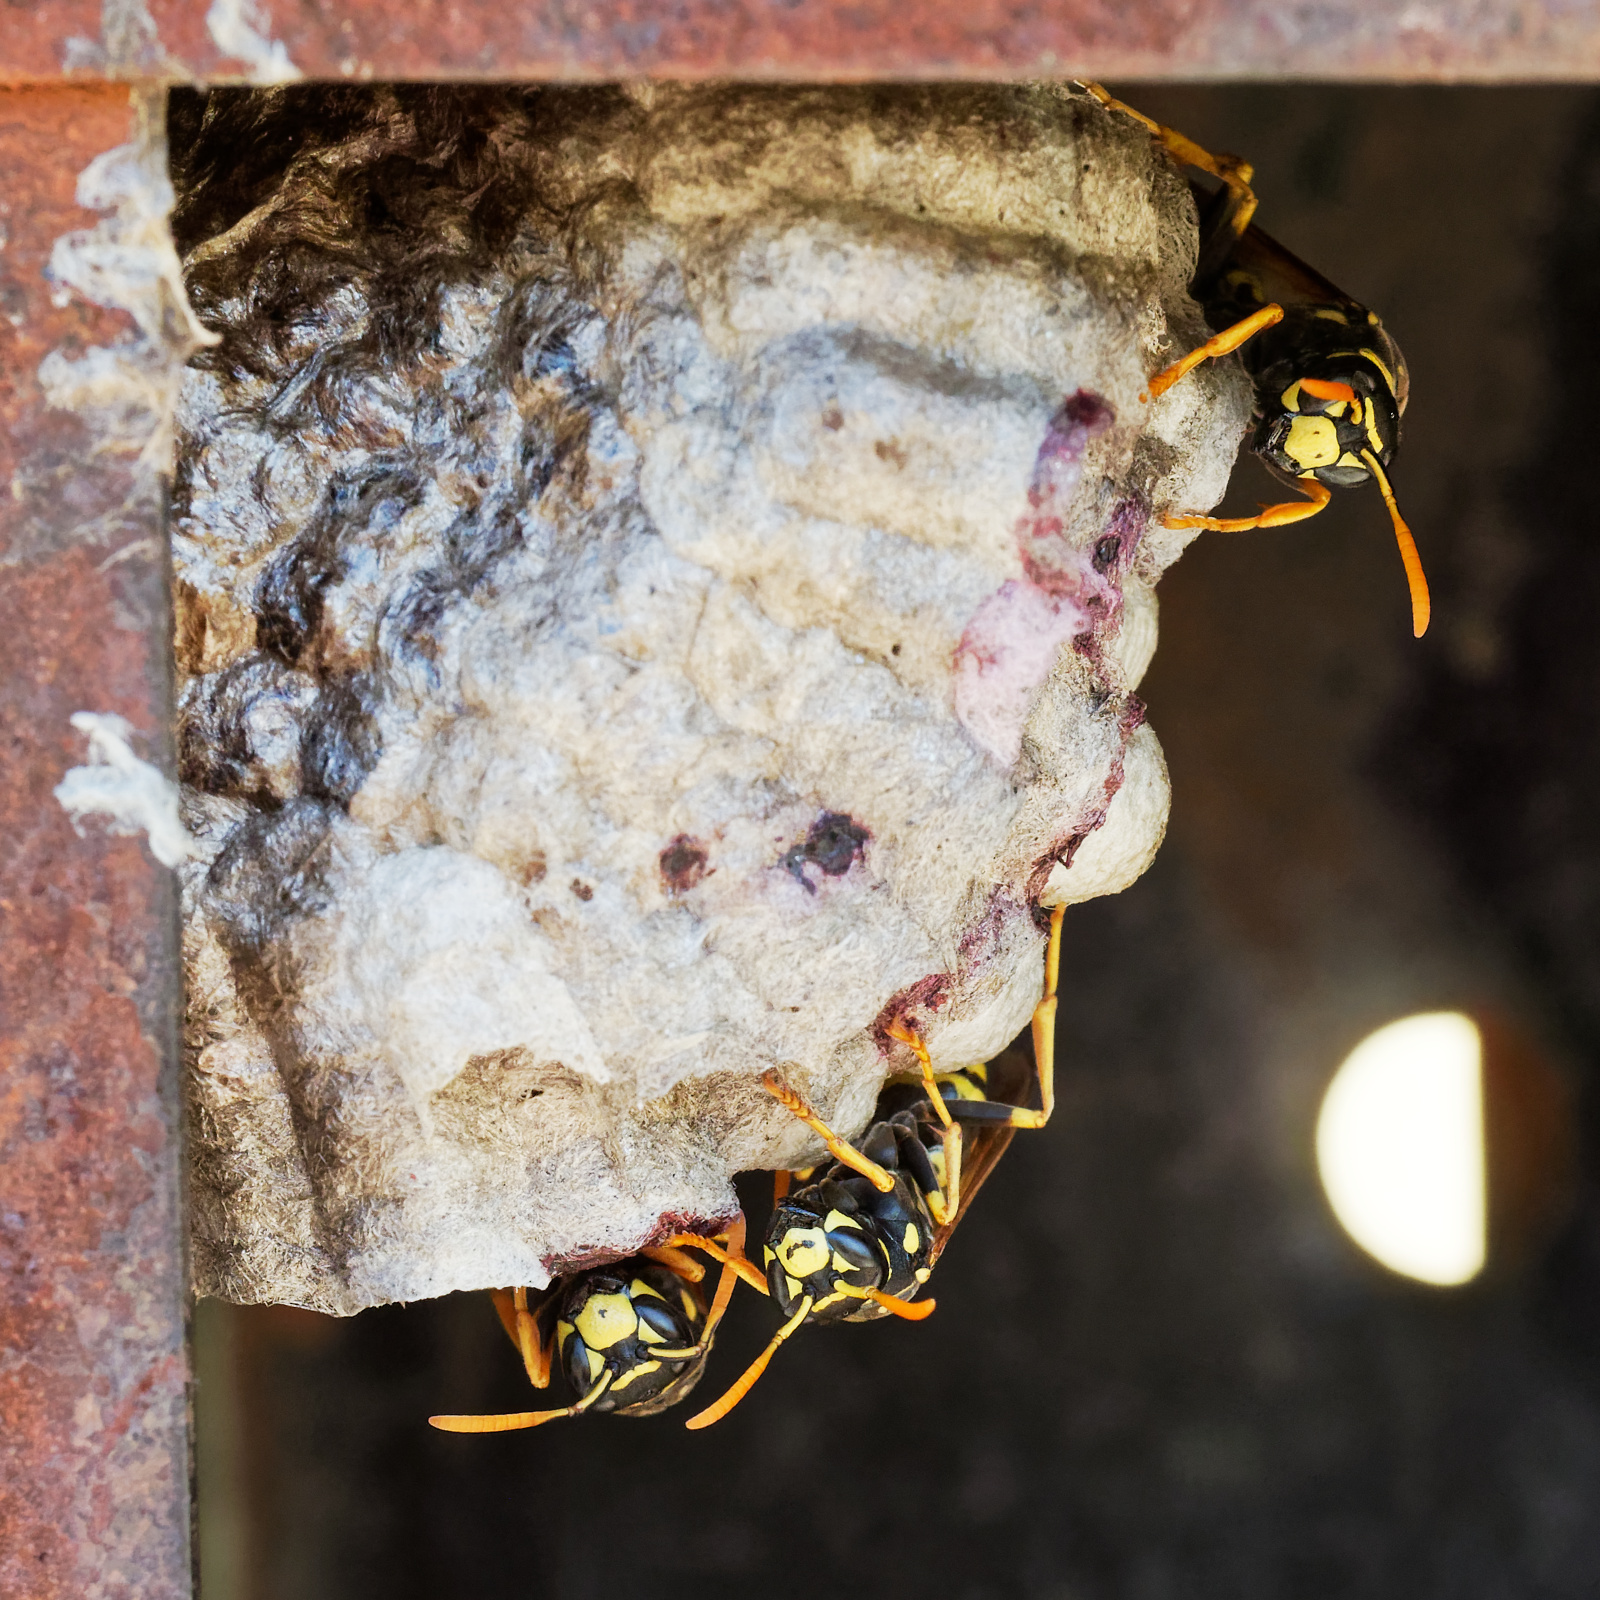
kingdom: Animalia
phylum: Arthropoda
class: Insecta
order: Hymenoptera
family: Eumenidae
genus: Polistes
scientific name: Polistes dominula
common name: Paper wasp
